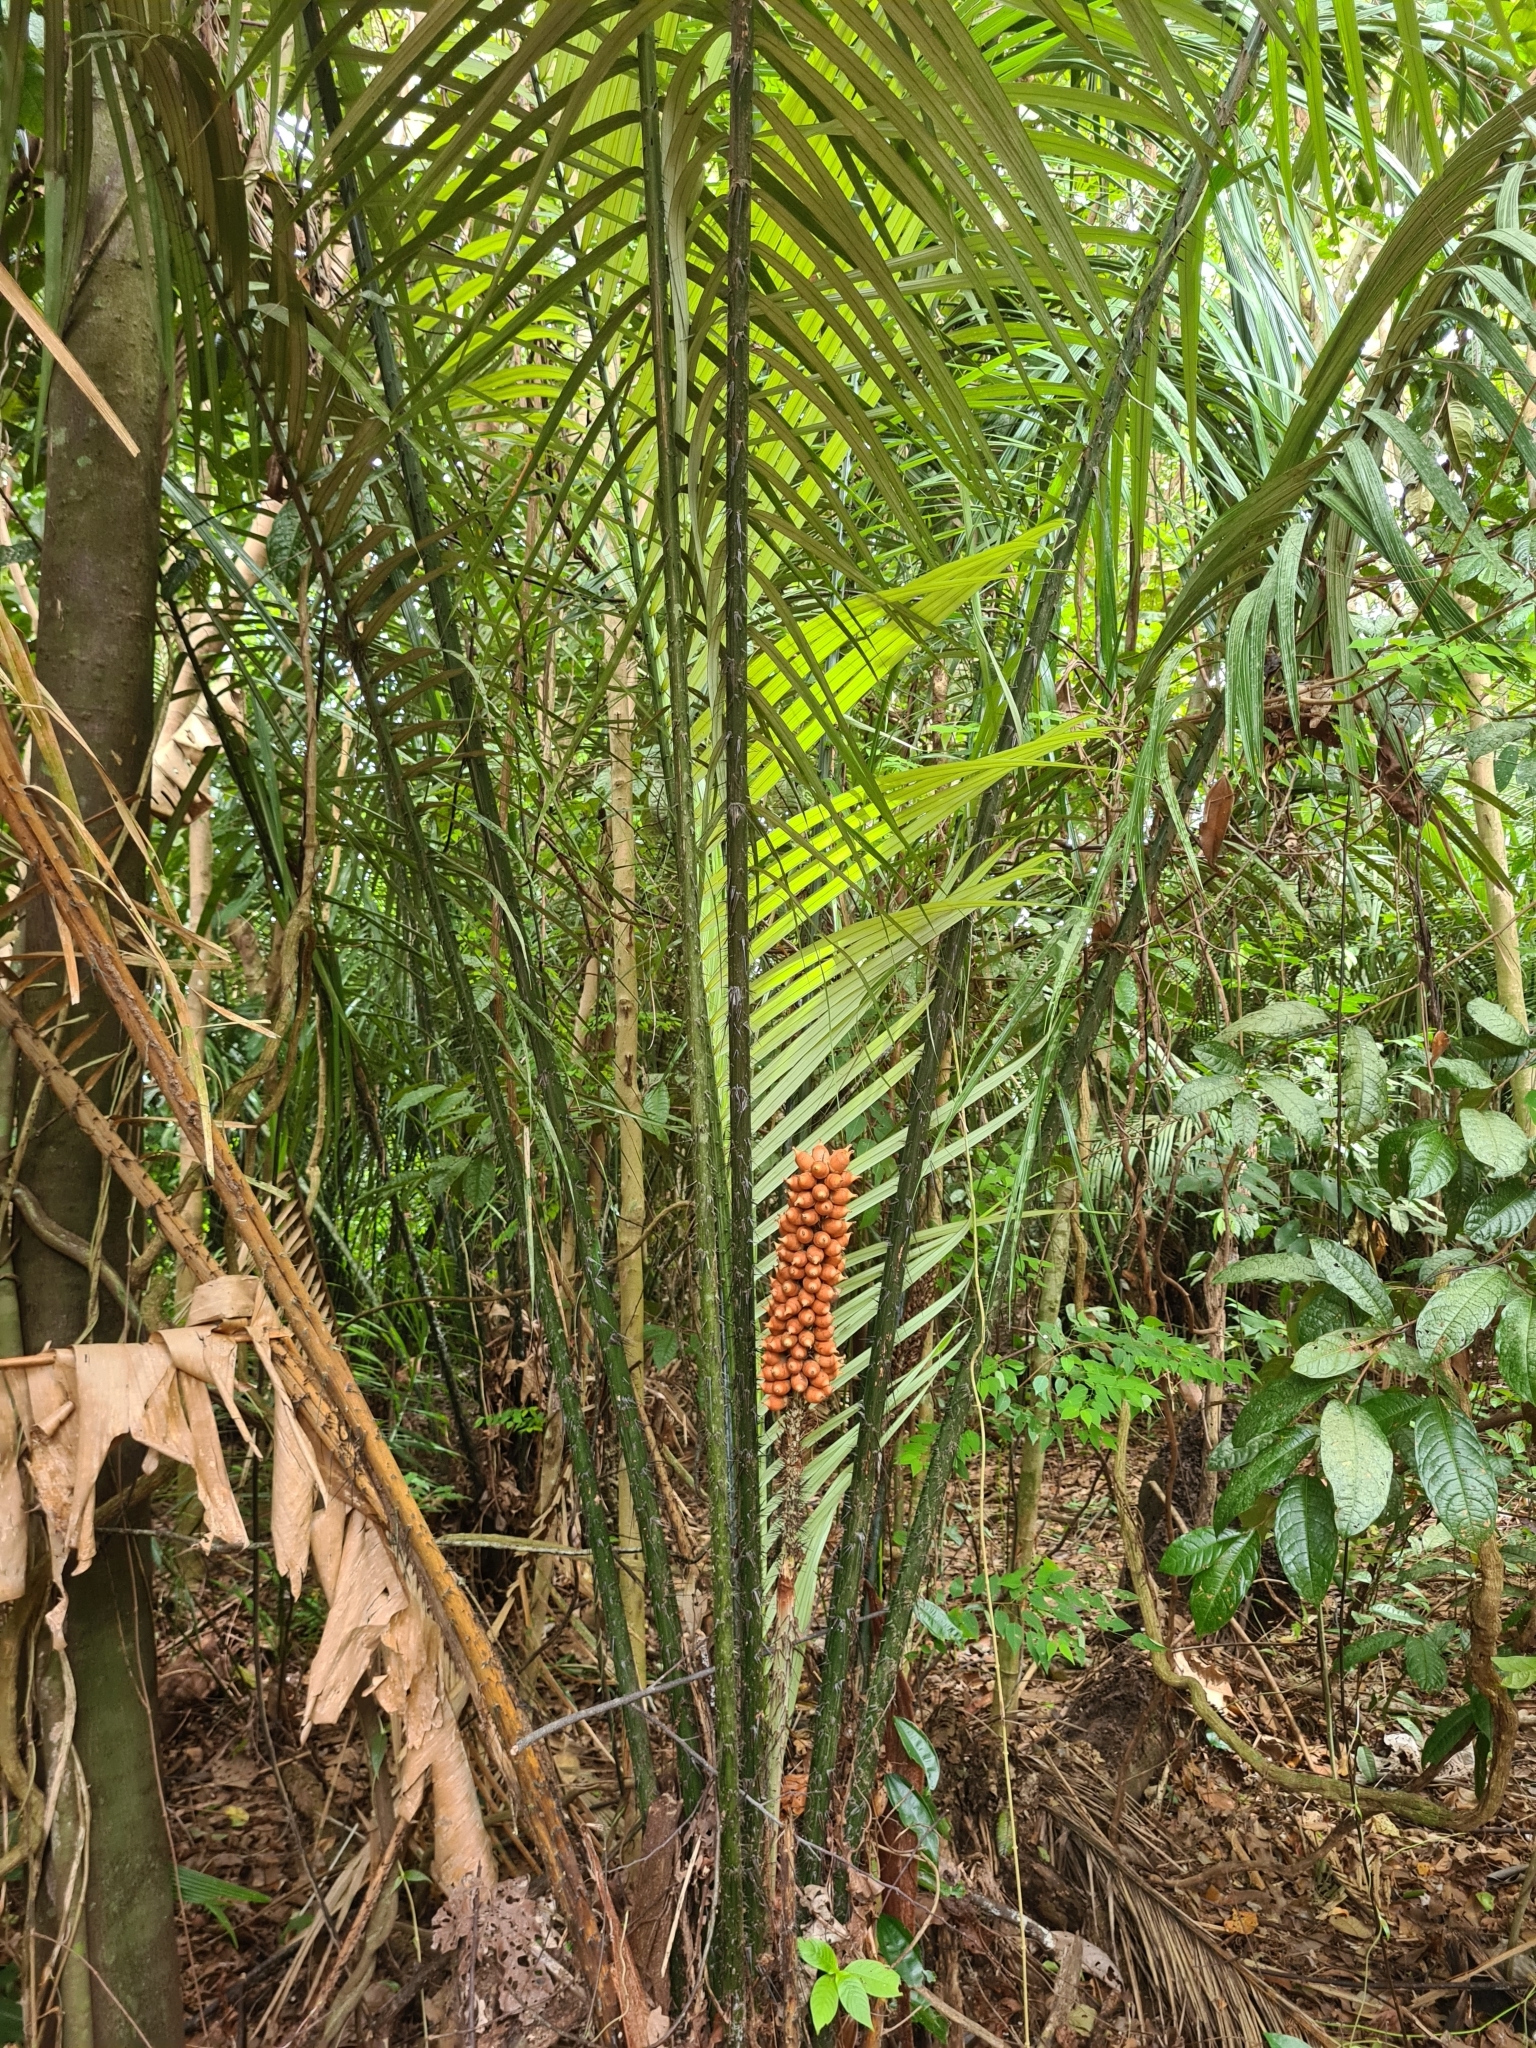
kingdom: Plantae
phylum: Tracheophyta
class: Liliopsida
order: Arecales
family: Arecaceae
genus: Astrocaryum
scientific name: Astrocaryum paramaca
